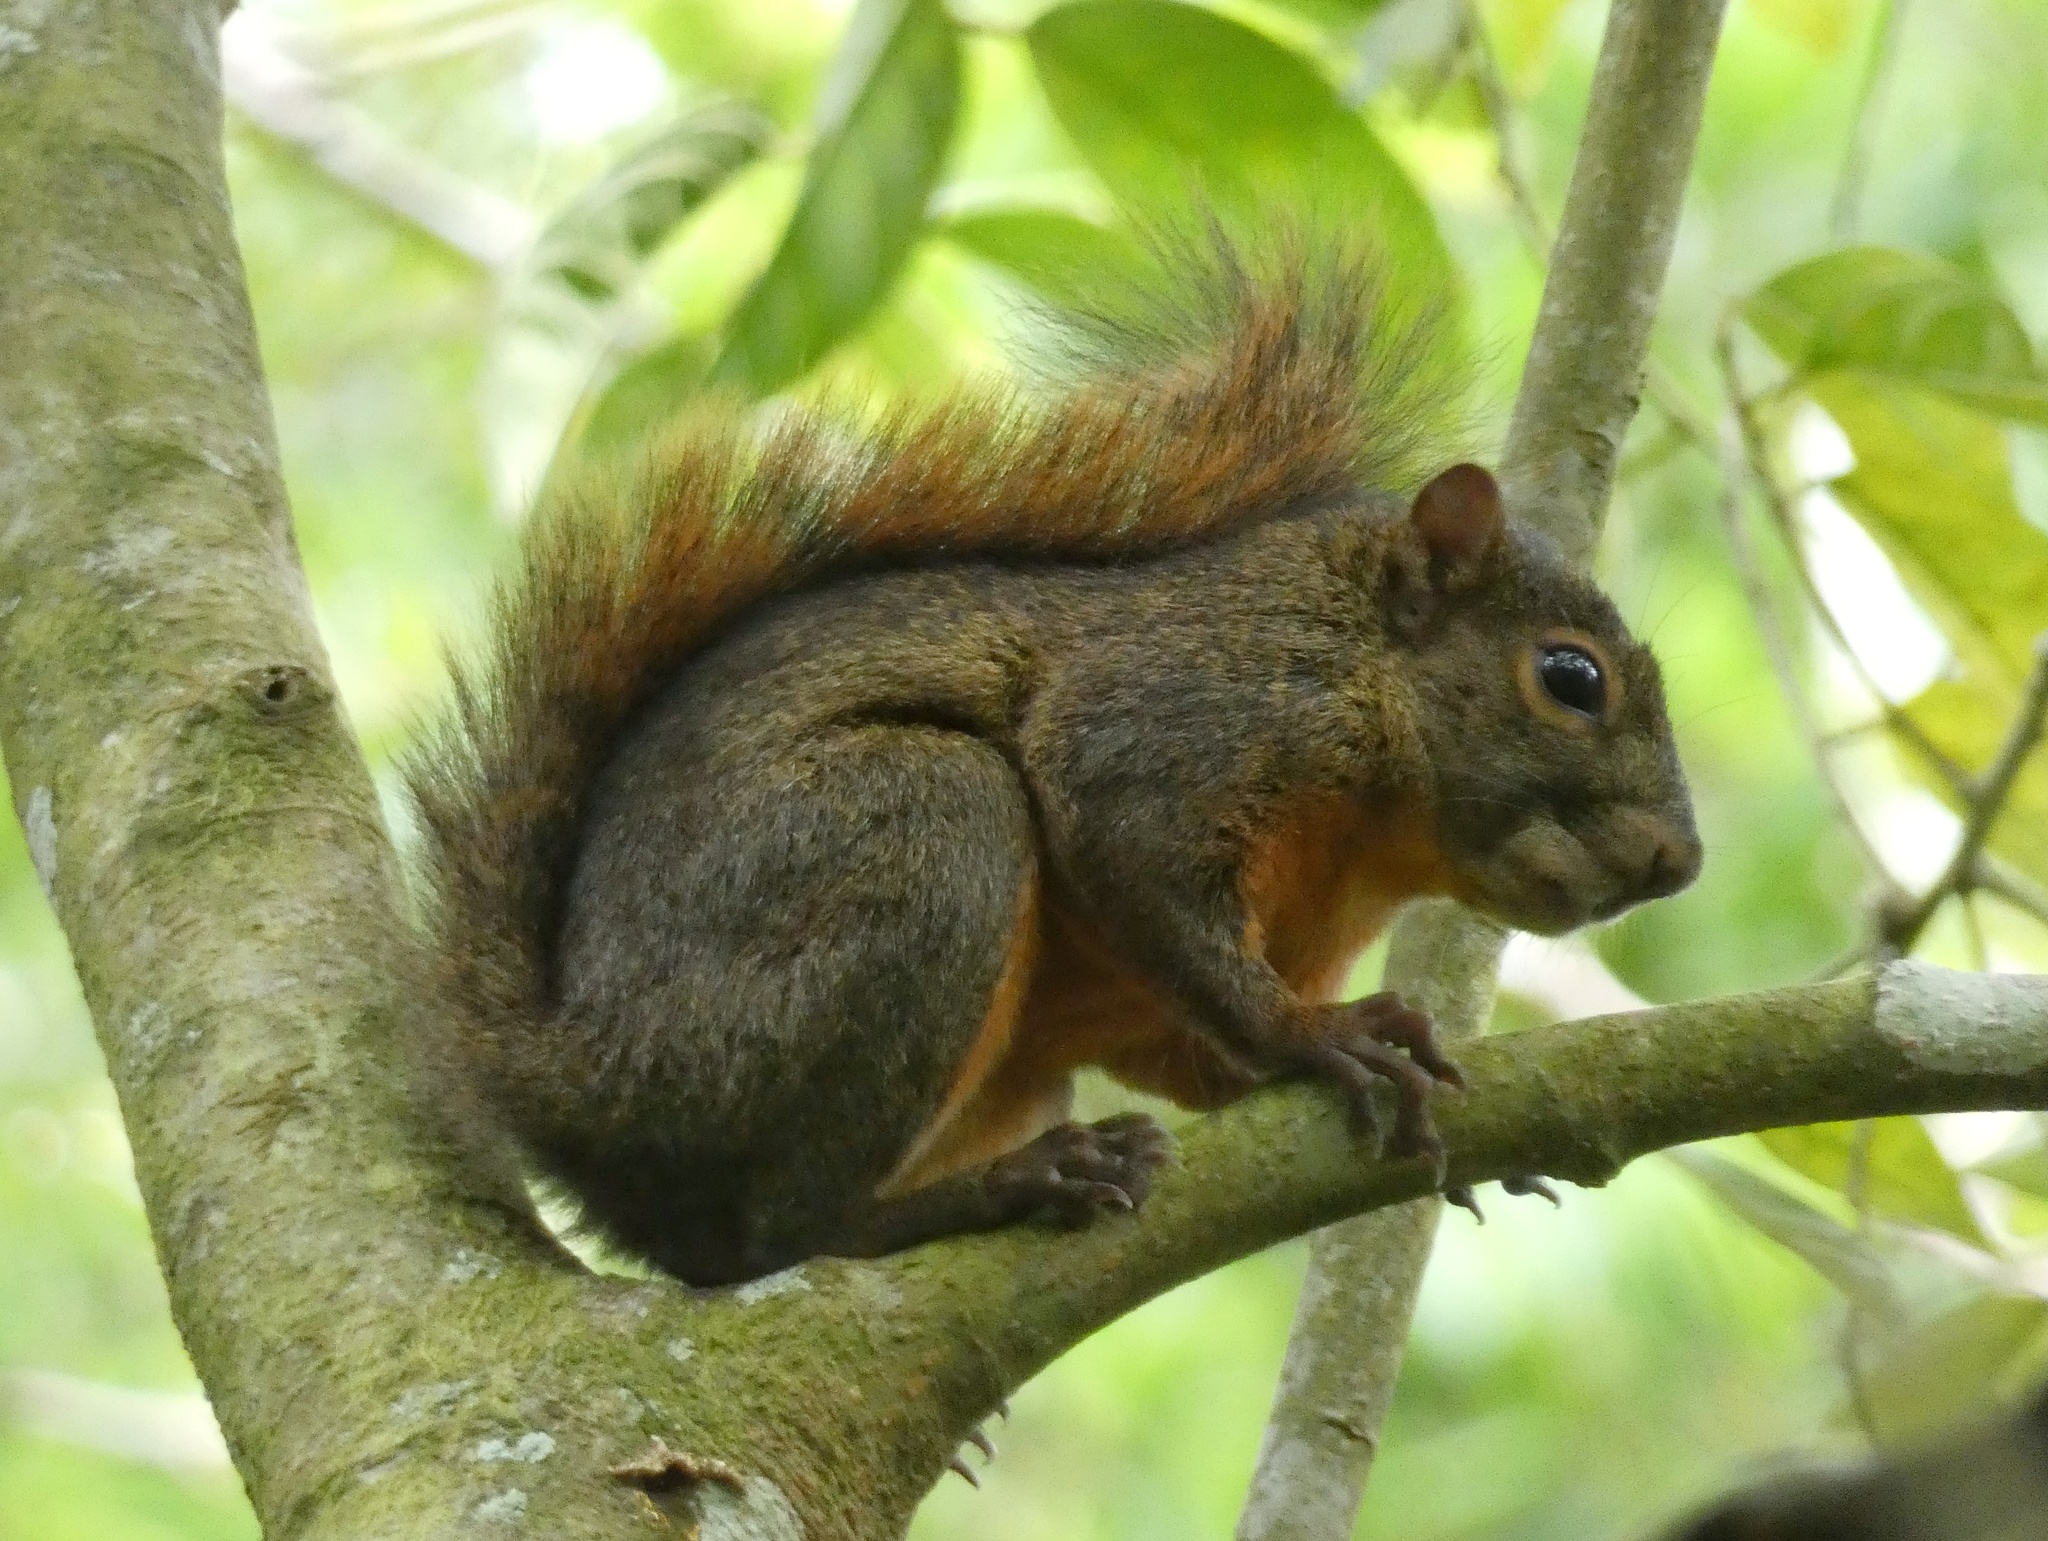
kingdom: Animalia
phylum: Chordata
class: Mammalia
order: Rodentia
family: Sciuridae
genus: Sciurus
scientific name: Sciurus granatensis
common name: Red-tailed squirrel
